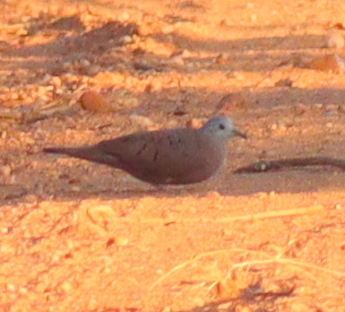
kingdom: Animalia
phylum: Chordata
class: Aves
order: Columbiformes
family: Columbidae
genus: Columbina
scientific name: Columbina talpacoti
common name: Ruddy ground dove
